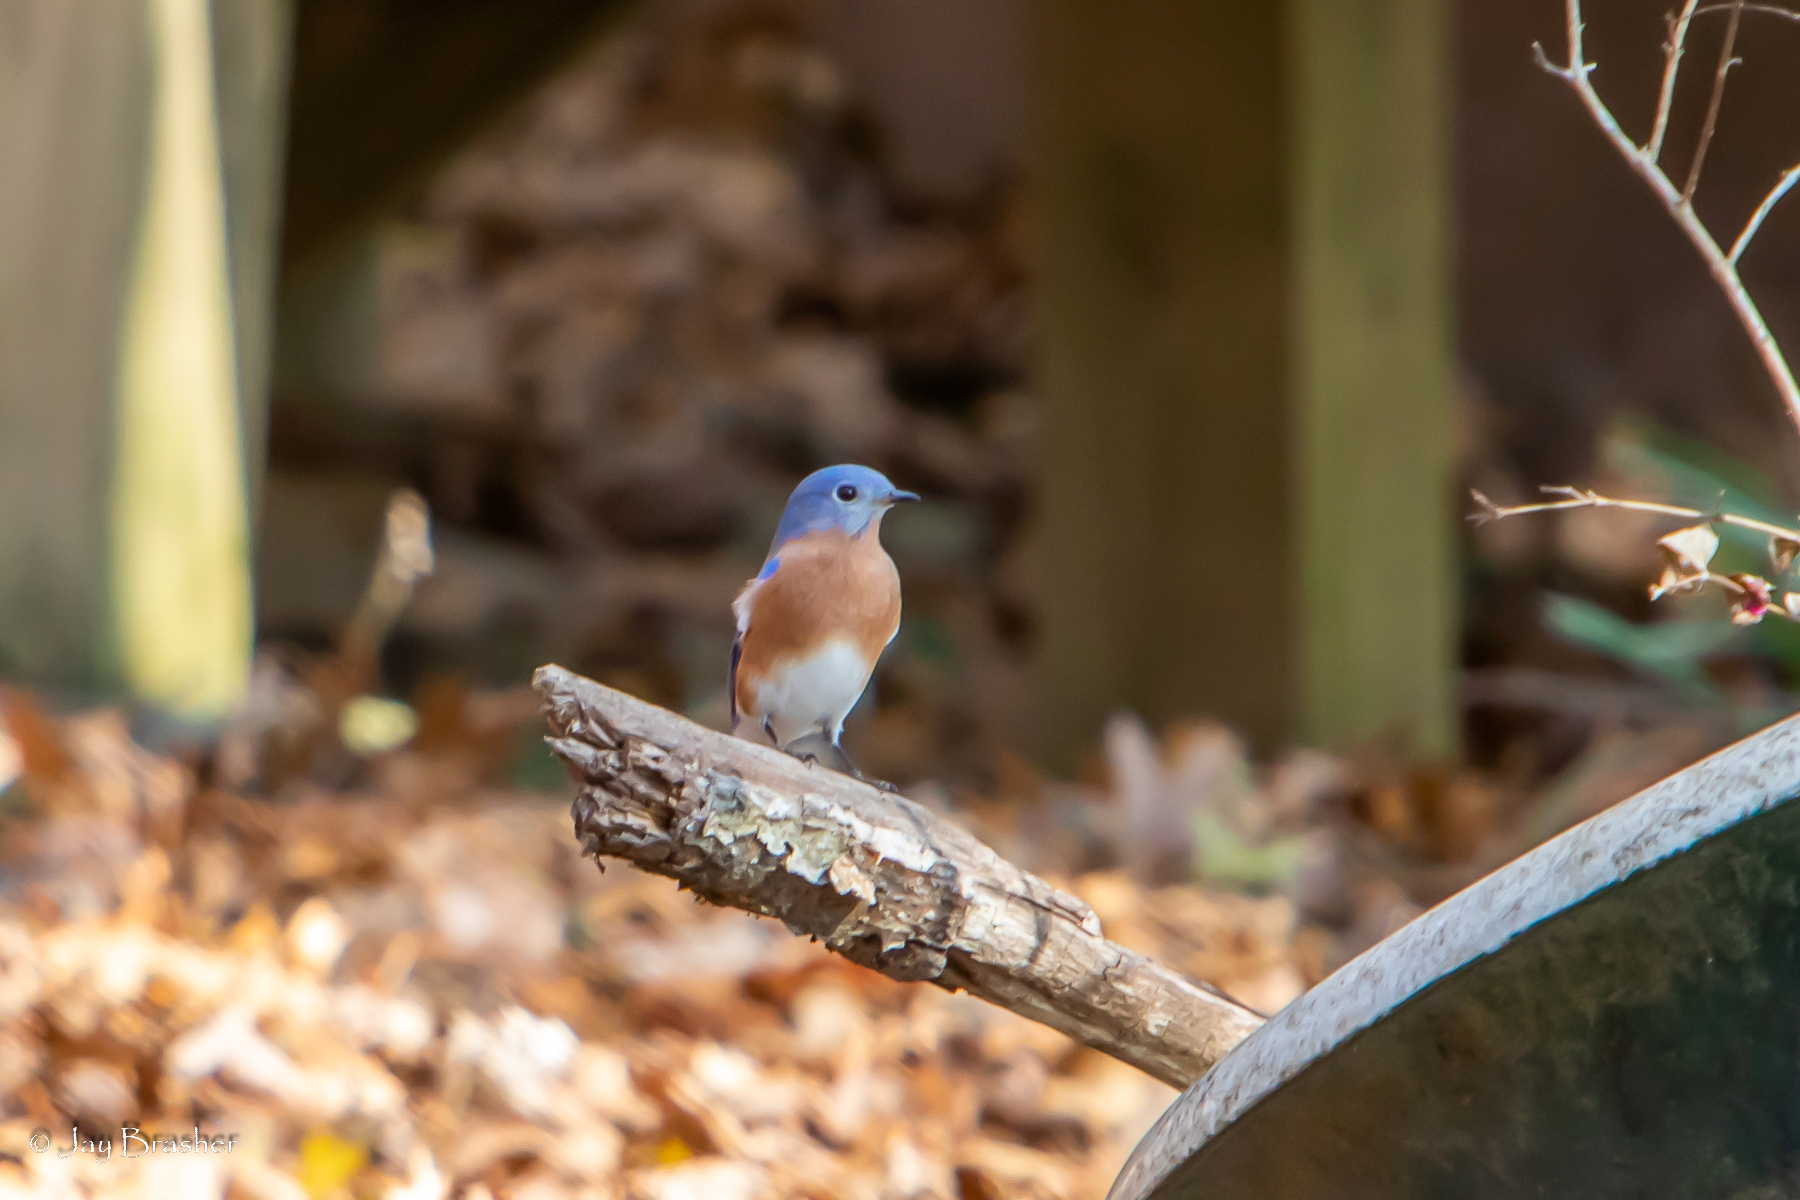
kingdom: Animalia
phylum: Chordata
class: Aves
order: Passeriformes
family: Turdidae
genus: Sialia
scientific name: Sialia sialis
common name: Eastern bluebird
